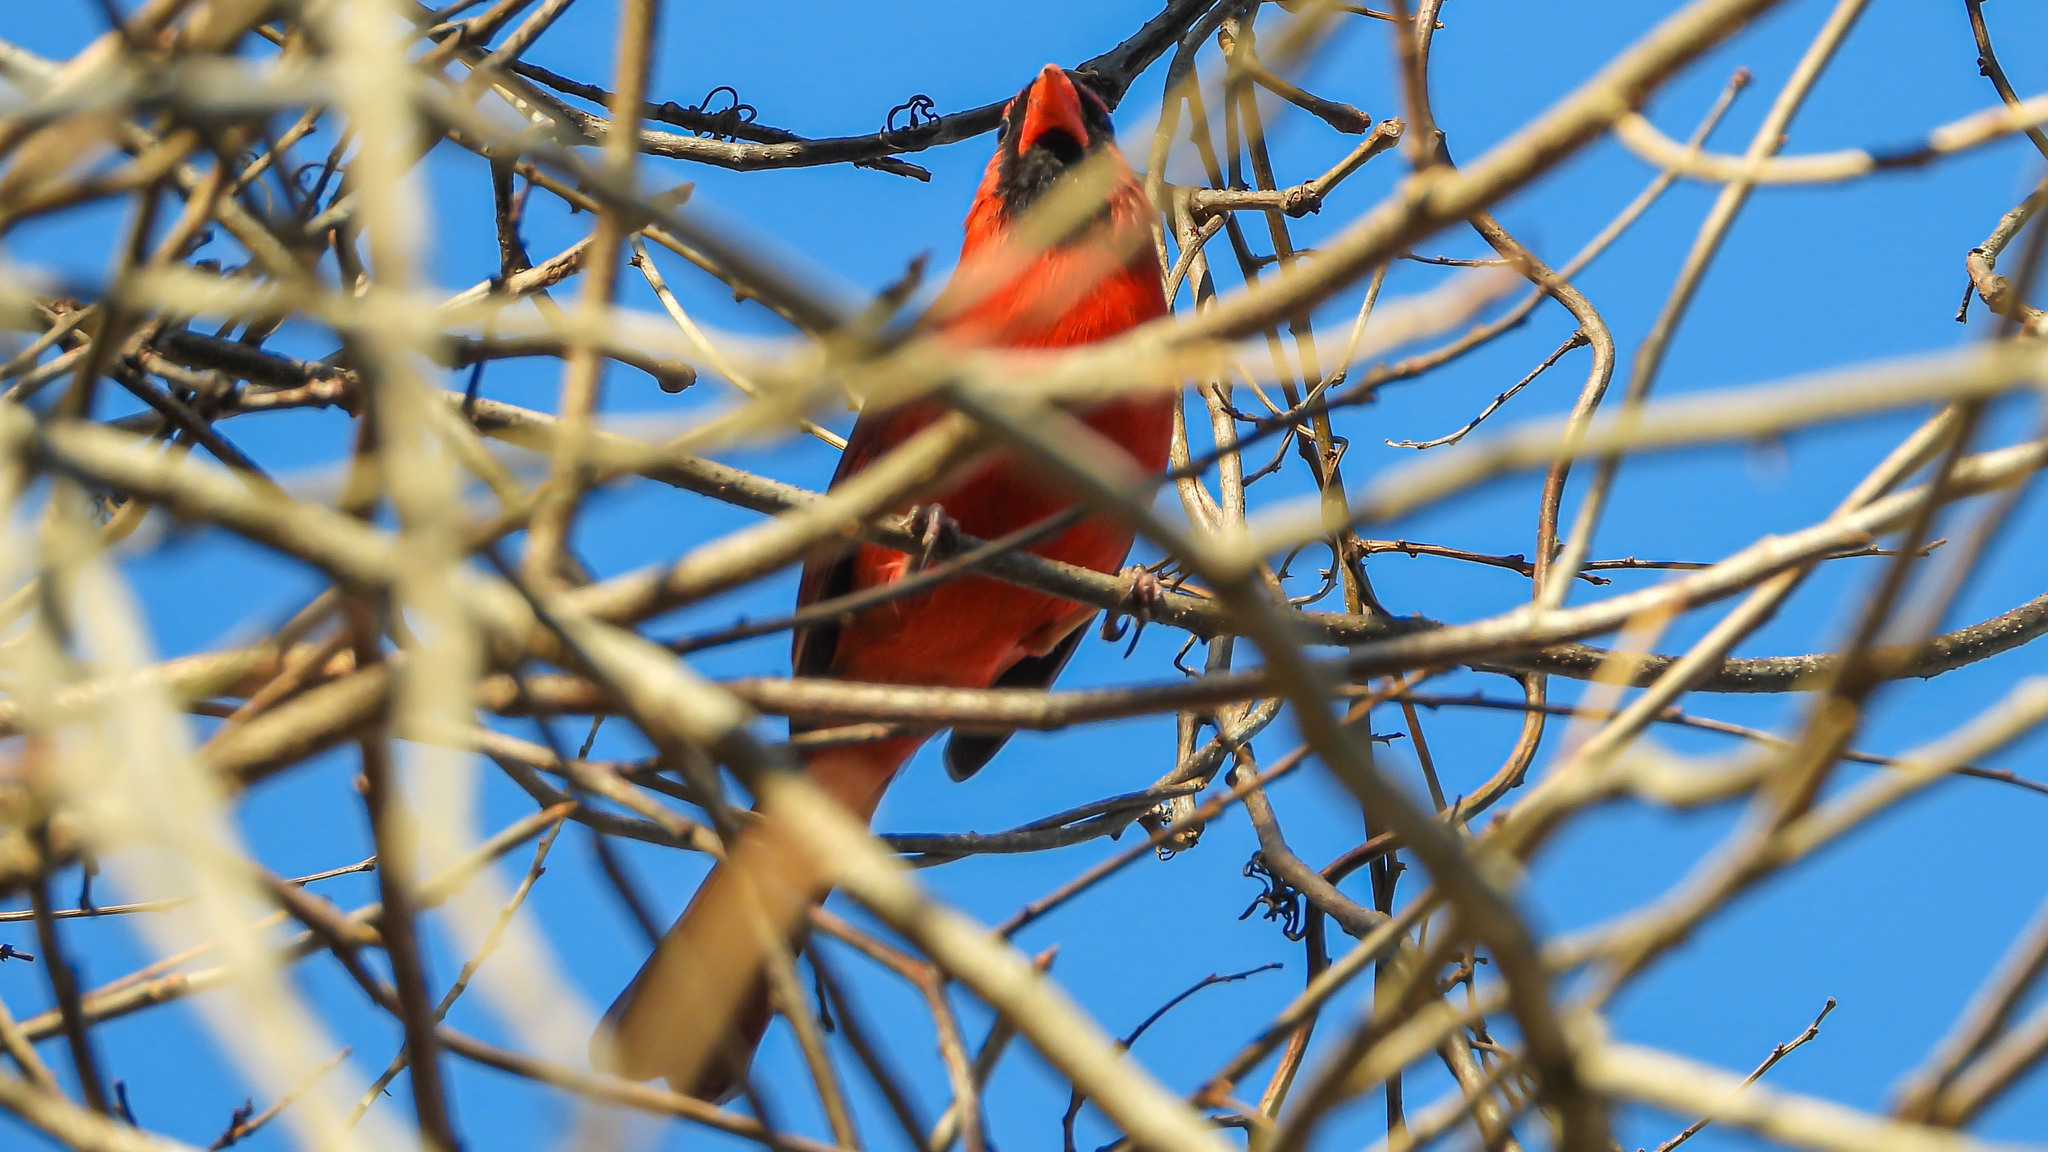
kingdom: Animalia
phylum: Chordata
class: Aves
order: Passeriformes
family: Cardinalidae
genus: Cardinalis
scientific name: Cardinalis cardinalis
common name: Northern cardinal
